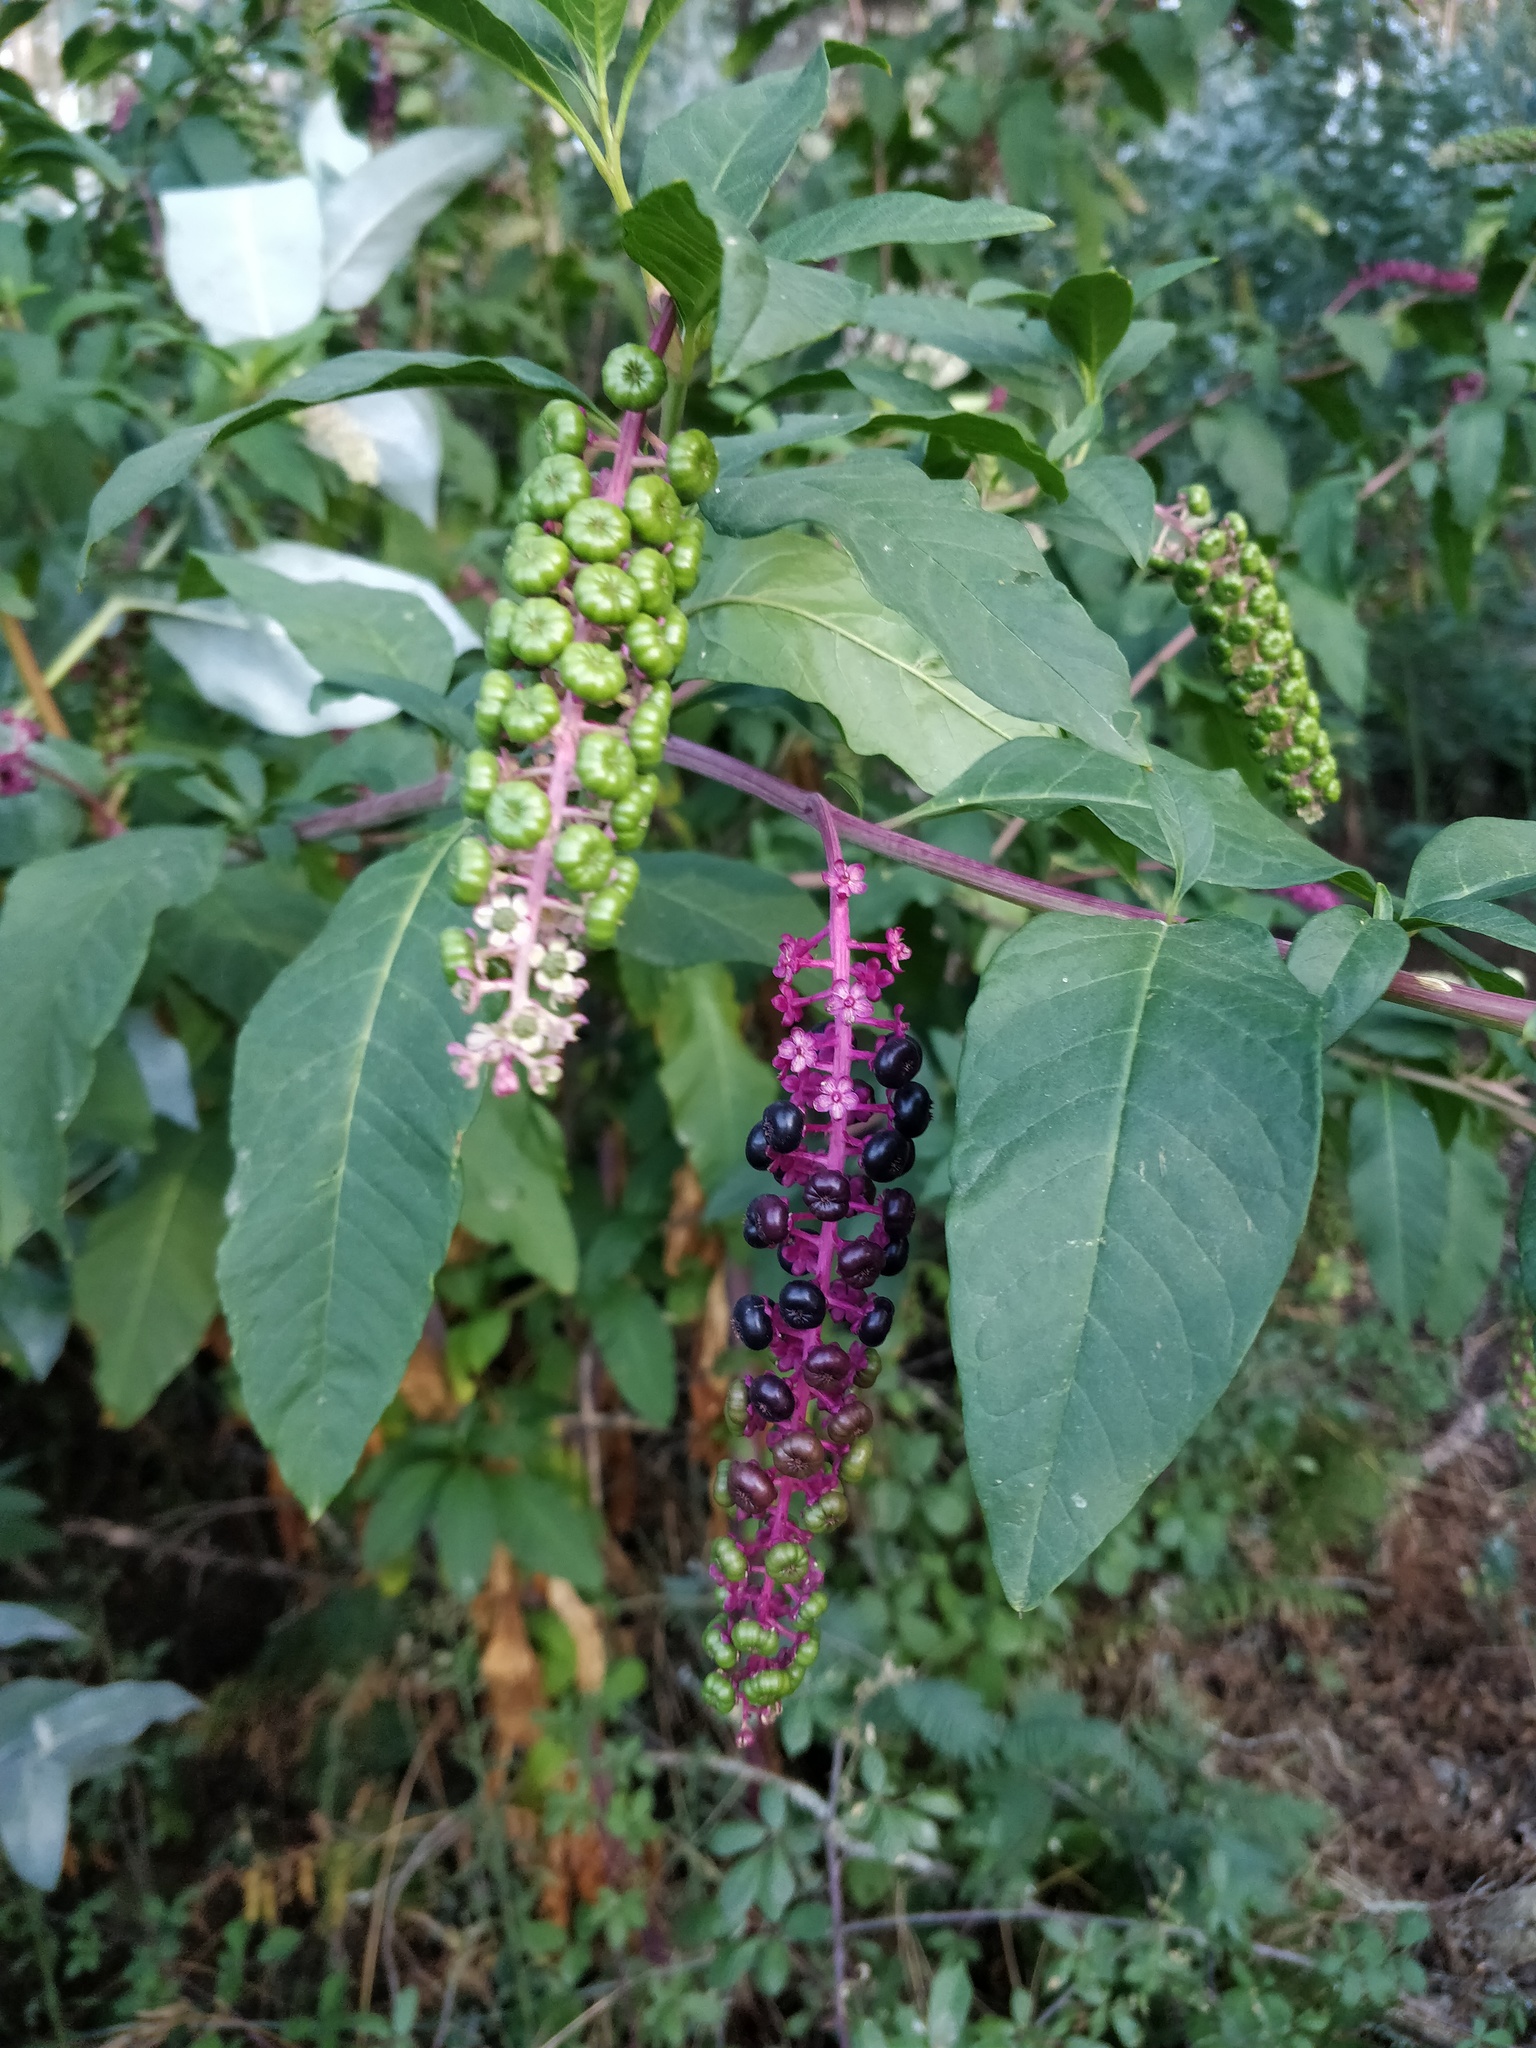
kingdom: Plantae
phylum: Tracheophyta
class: Magnoliopsida
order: Caryophyllales
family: Phytolaccaceae
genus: Phytolacca
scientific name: Phytolacca americana
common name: American pokeweed
